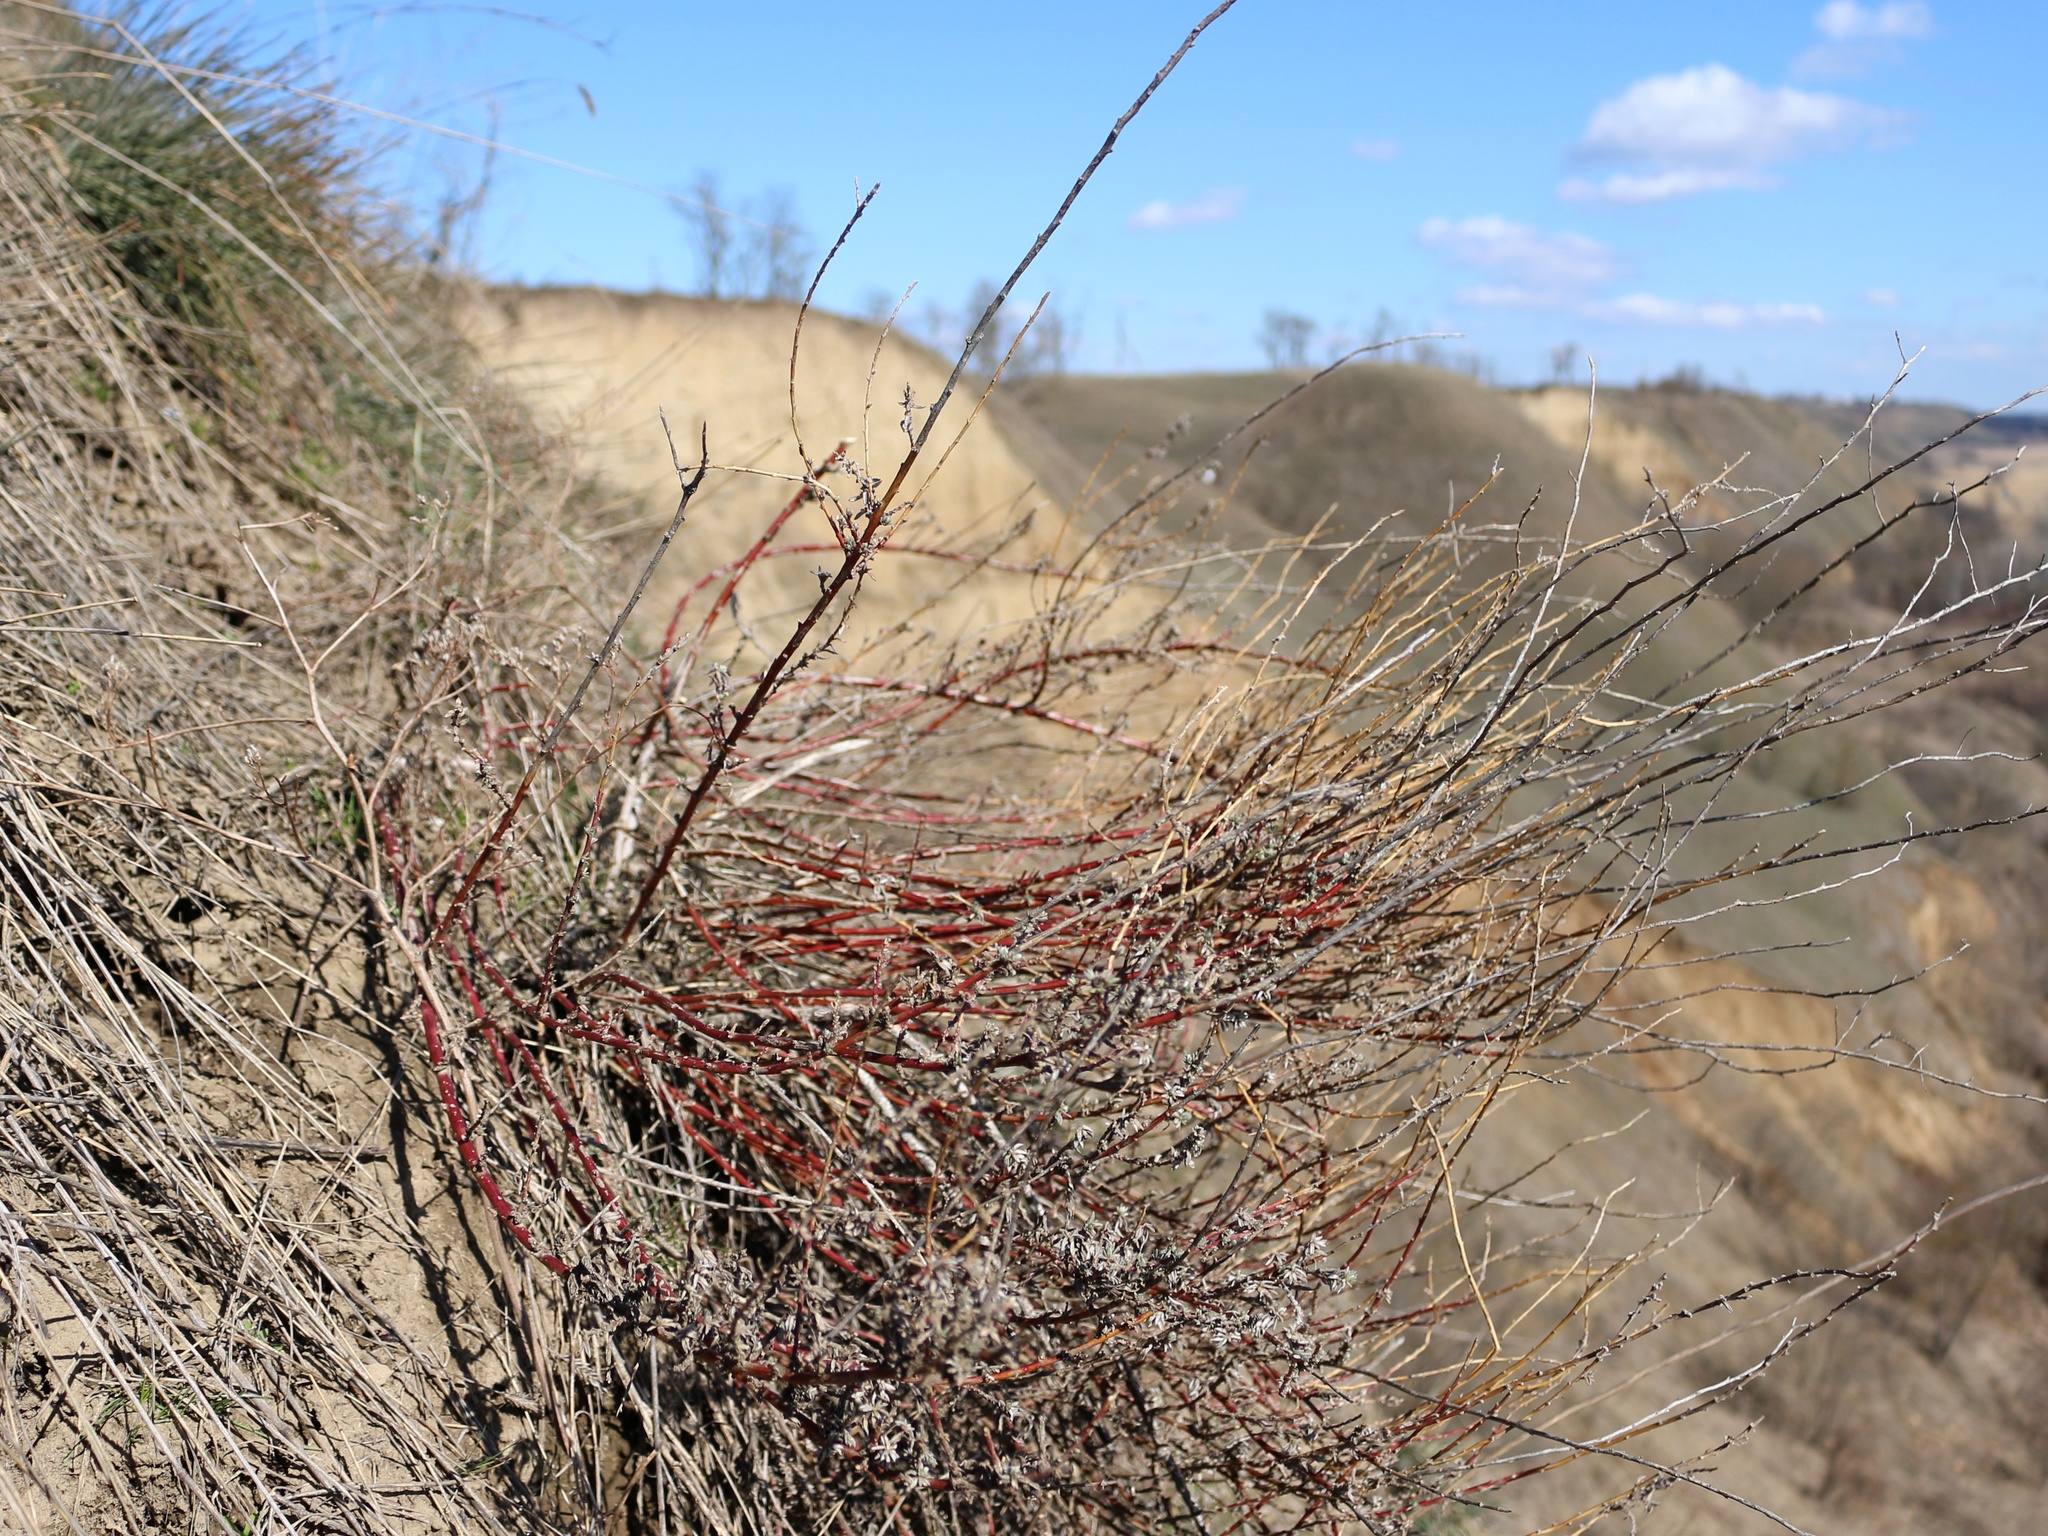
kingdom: Plantae
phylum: Tracheophyta
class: Magnoliopsida
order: Caryophyllales
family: Amaranthaceae
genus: Bassia
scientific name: Bassia prostrata
